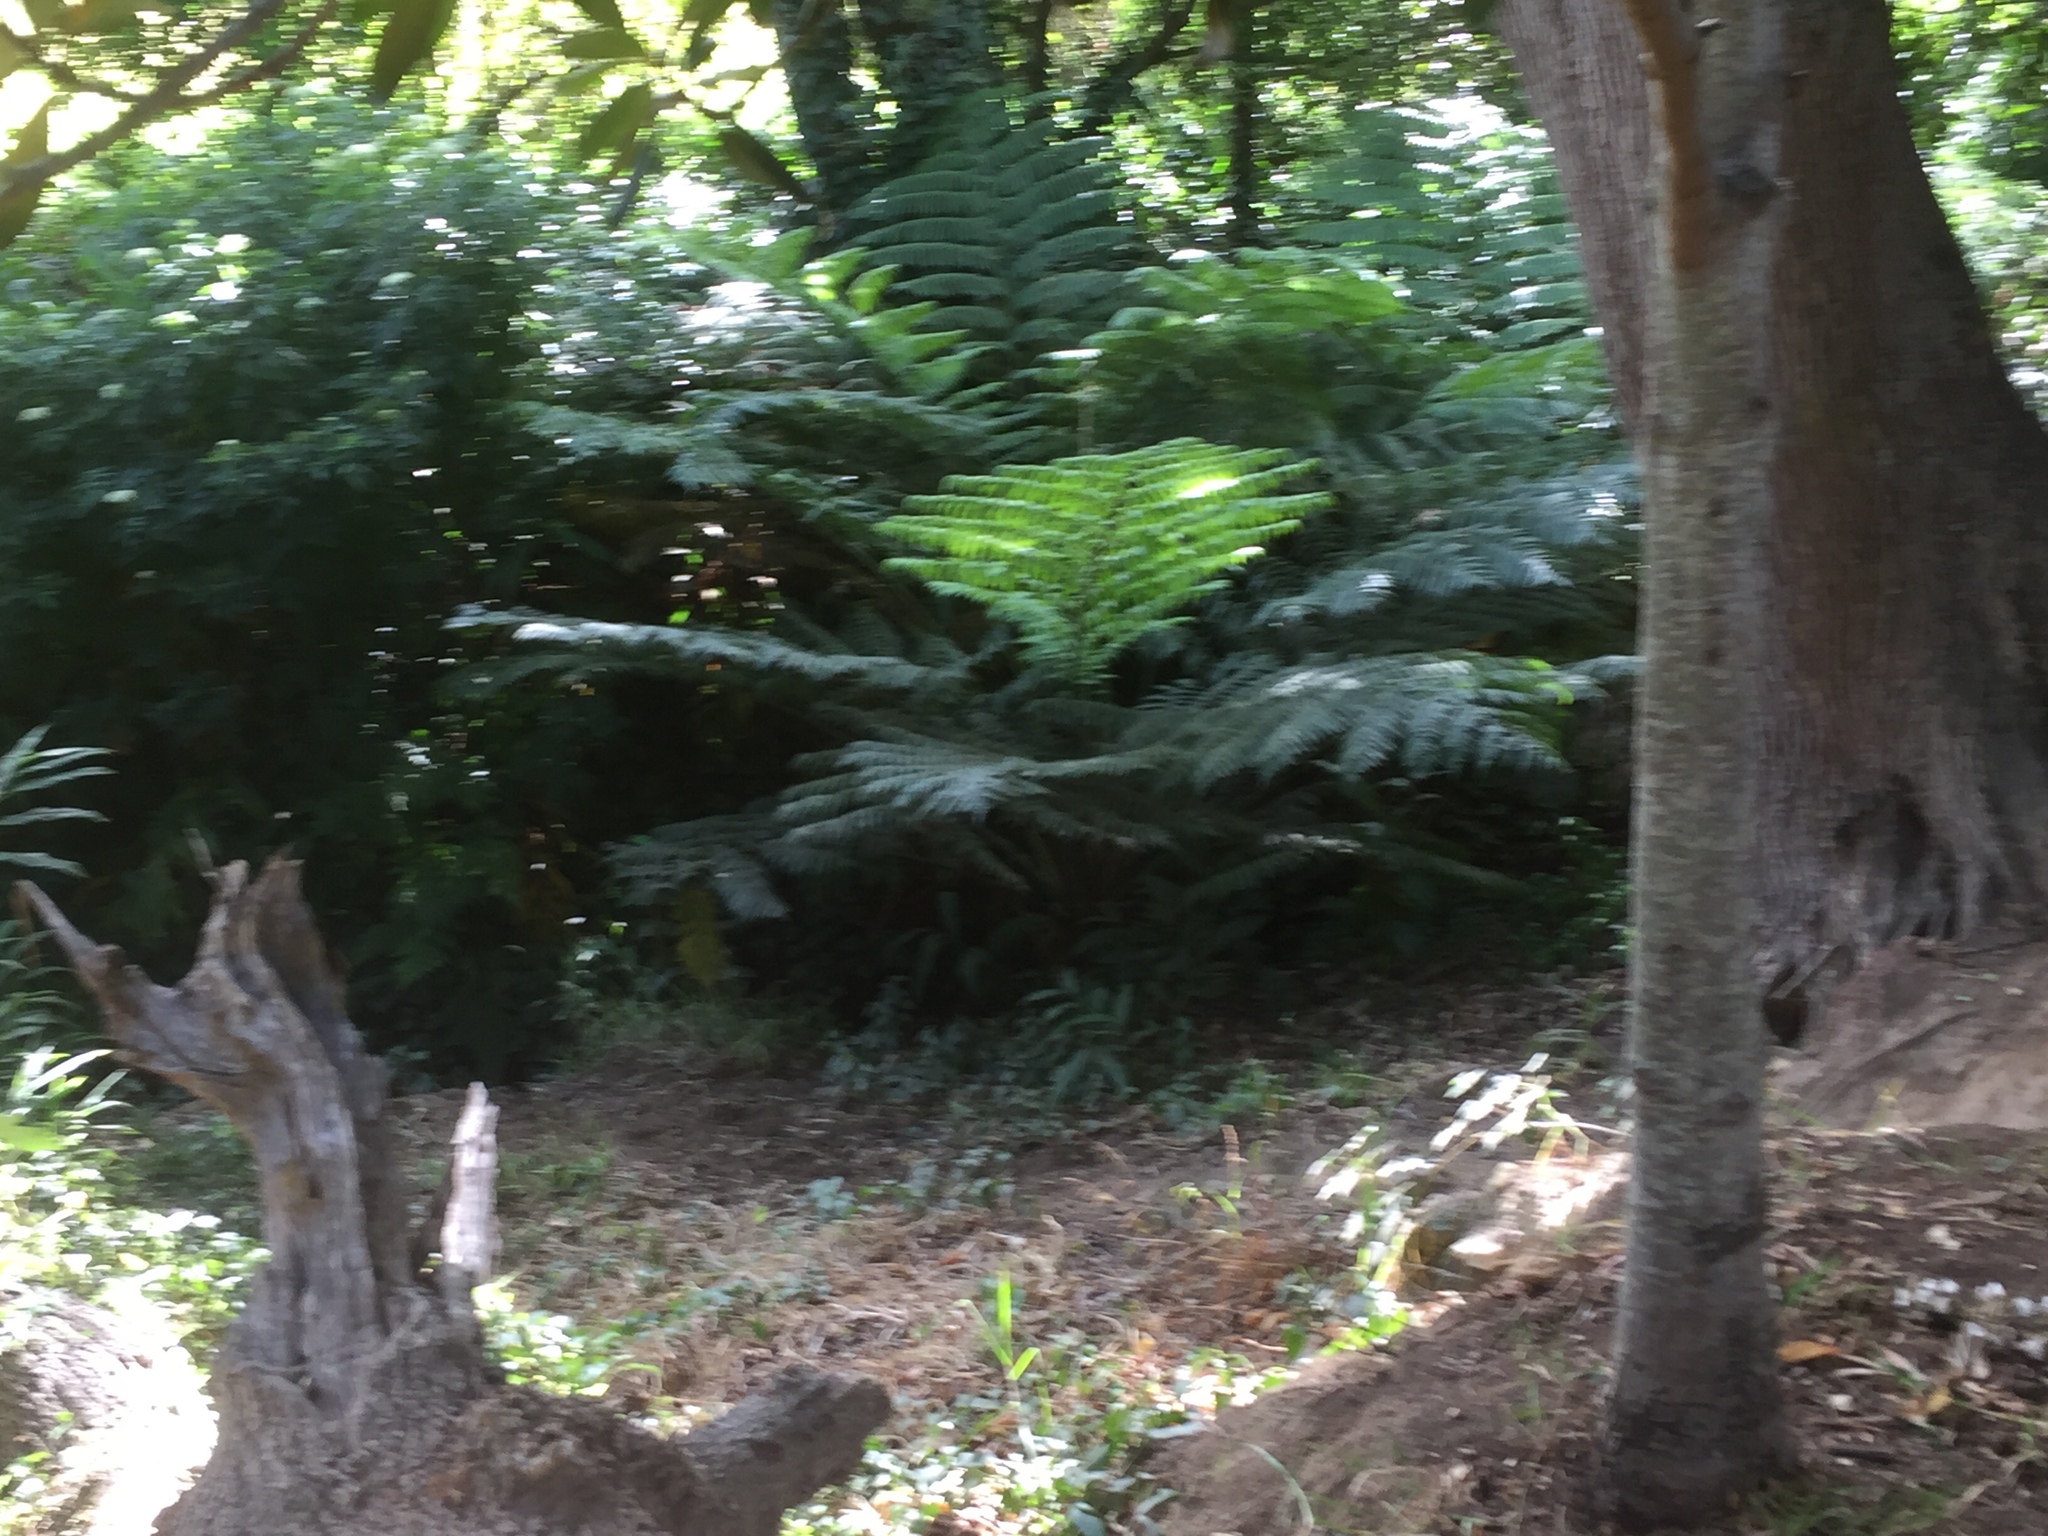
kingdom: Plantae
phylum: Tracheophyta
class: Polypodiopsida
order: Cyatheales
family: Cyatheaceae
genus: Sphaeropteris
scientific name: Sphaeropteris cooperi
